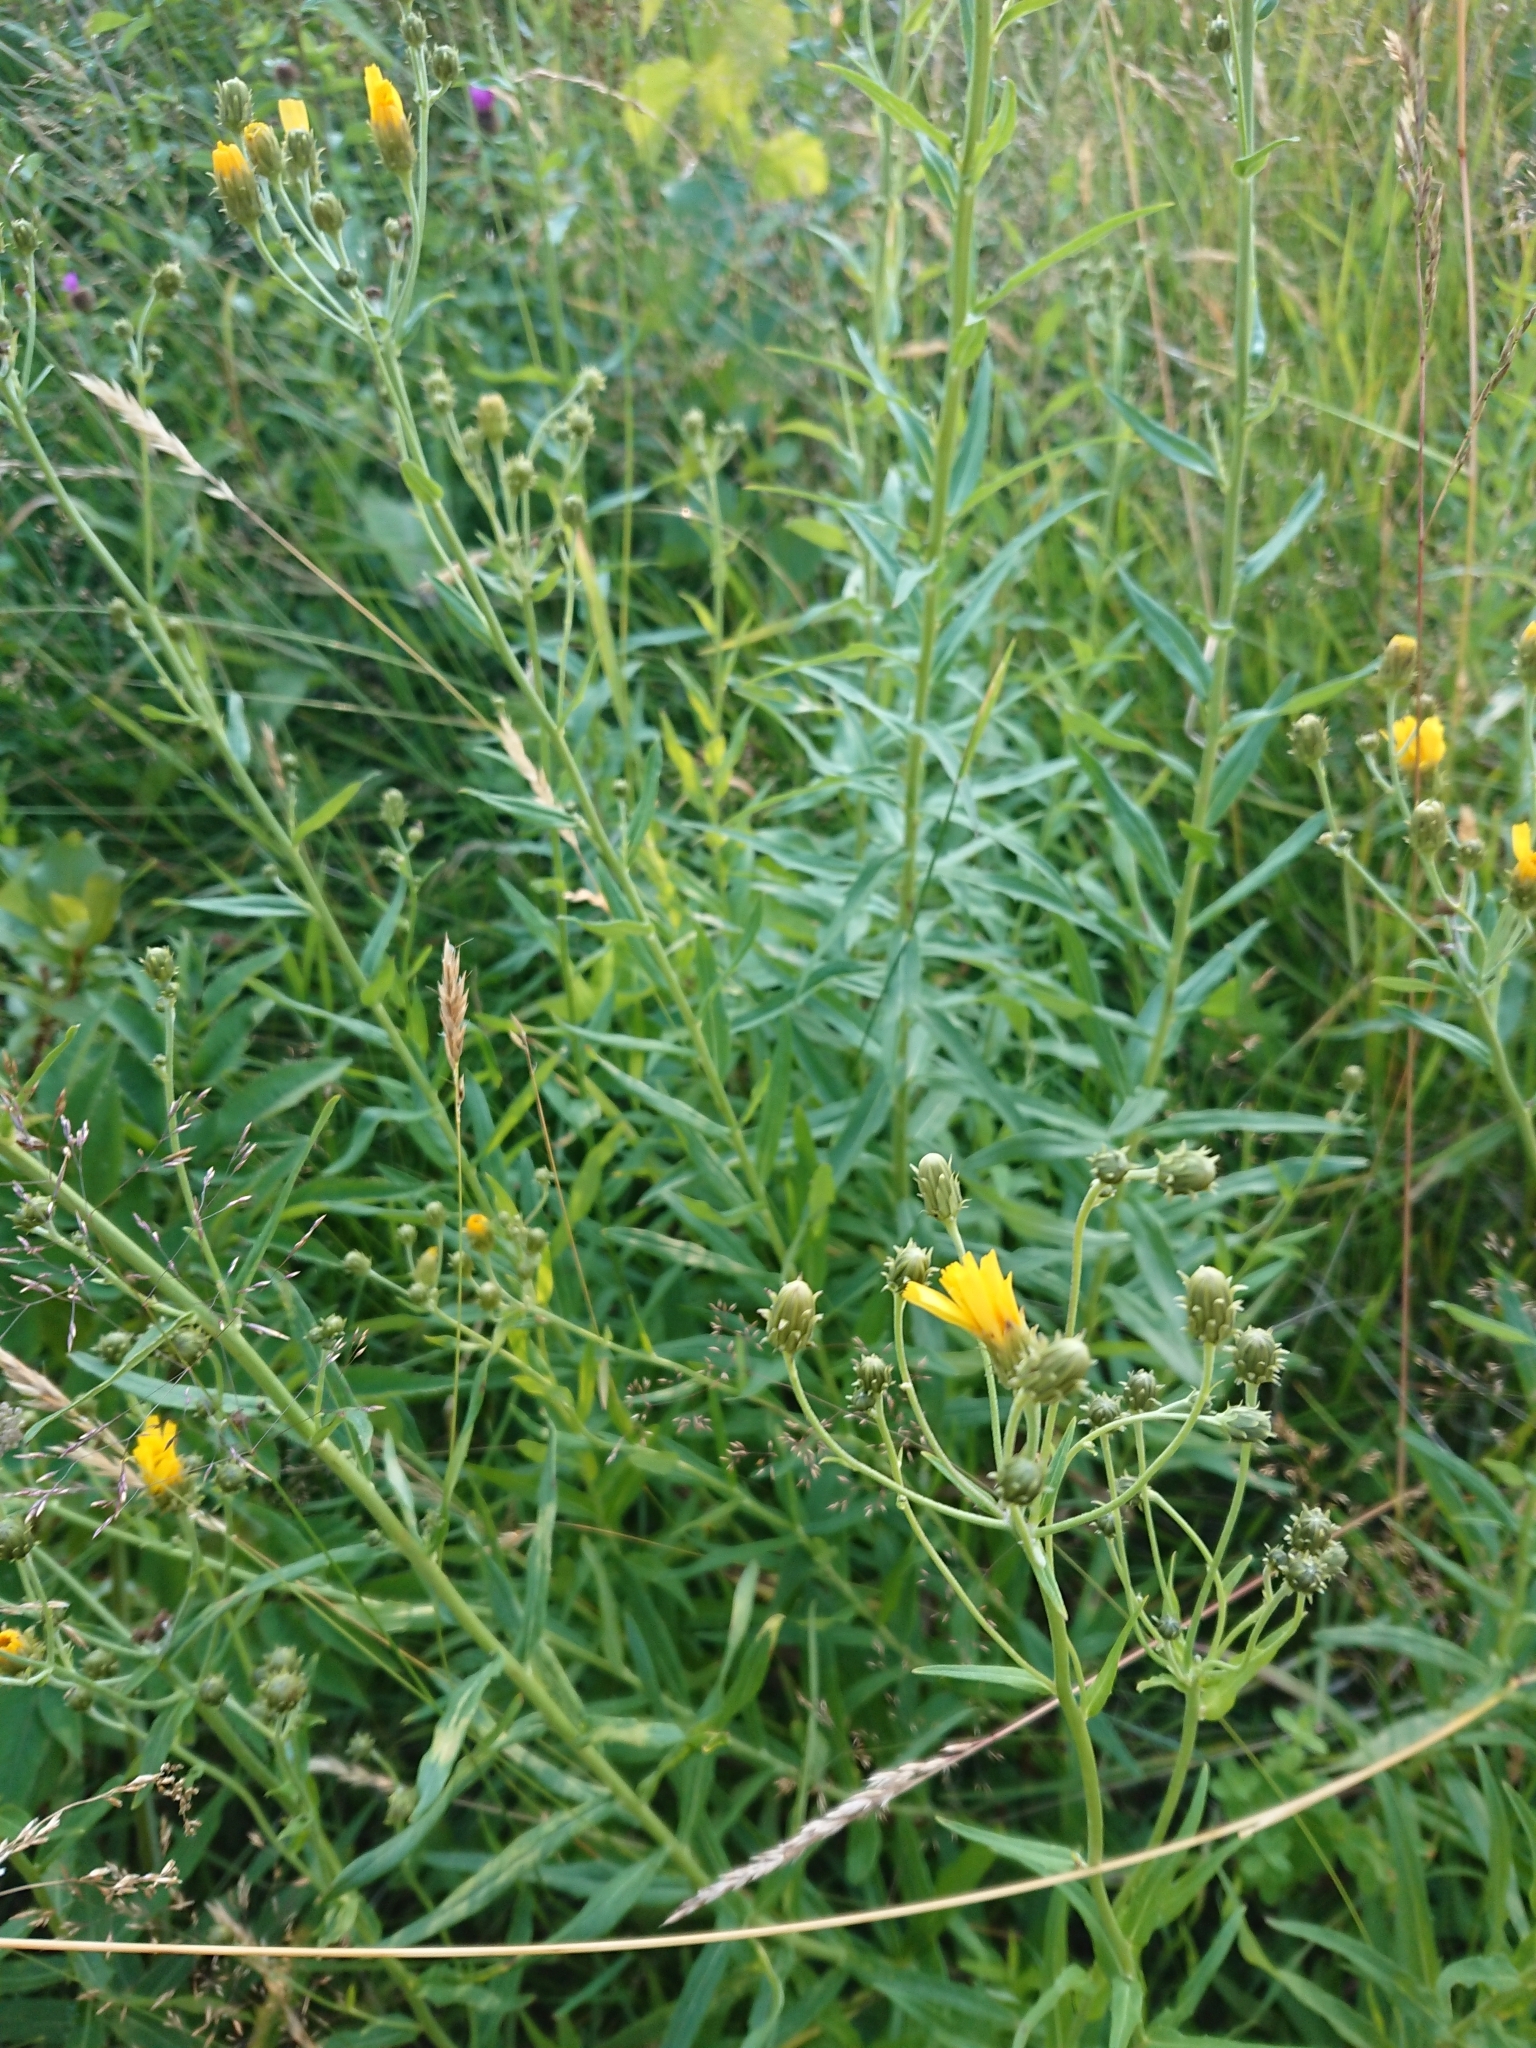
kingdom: Plantae
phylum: Tracheophyta
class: Magnoliopsida
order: Asterales
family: Asteraceae
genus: Hieracium
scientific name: Hieracium umbellatum
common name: Northern hawkweed
